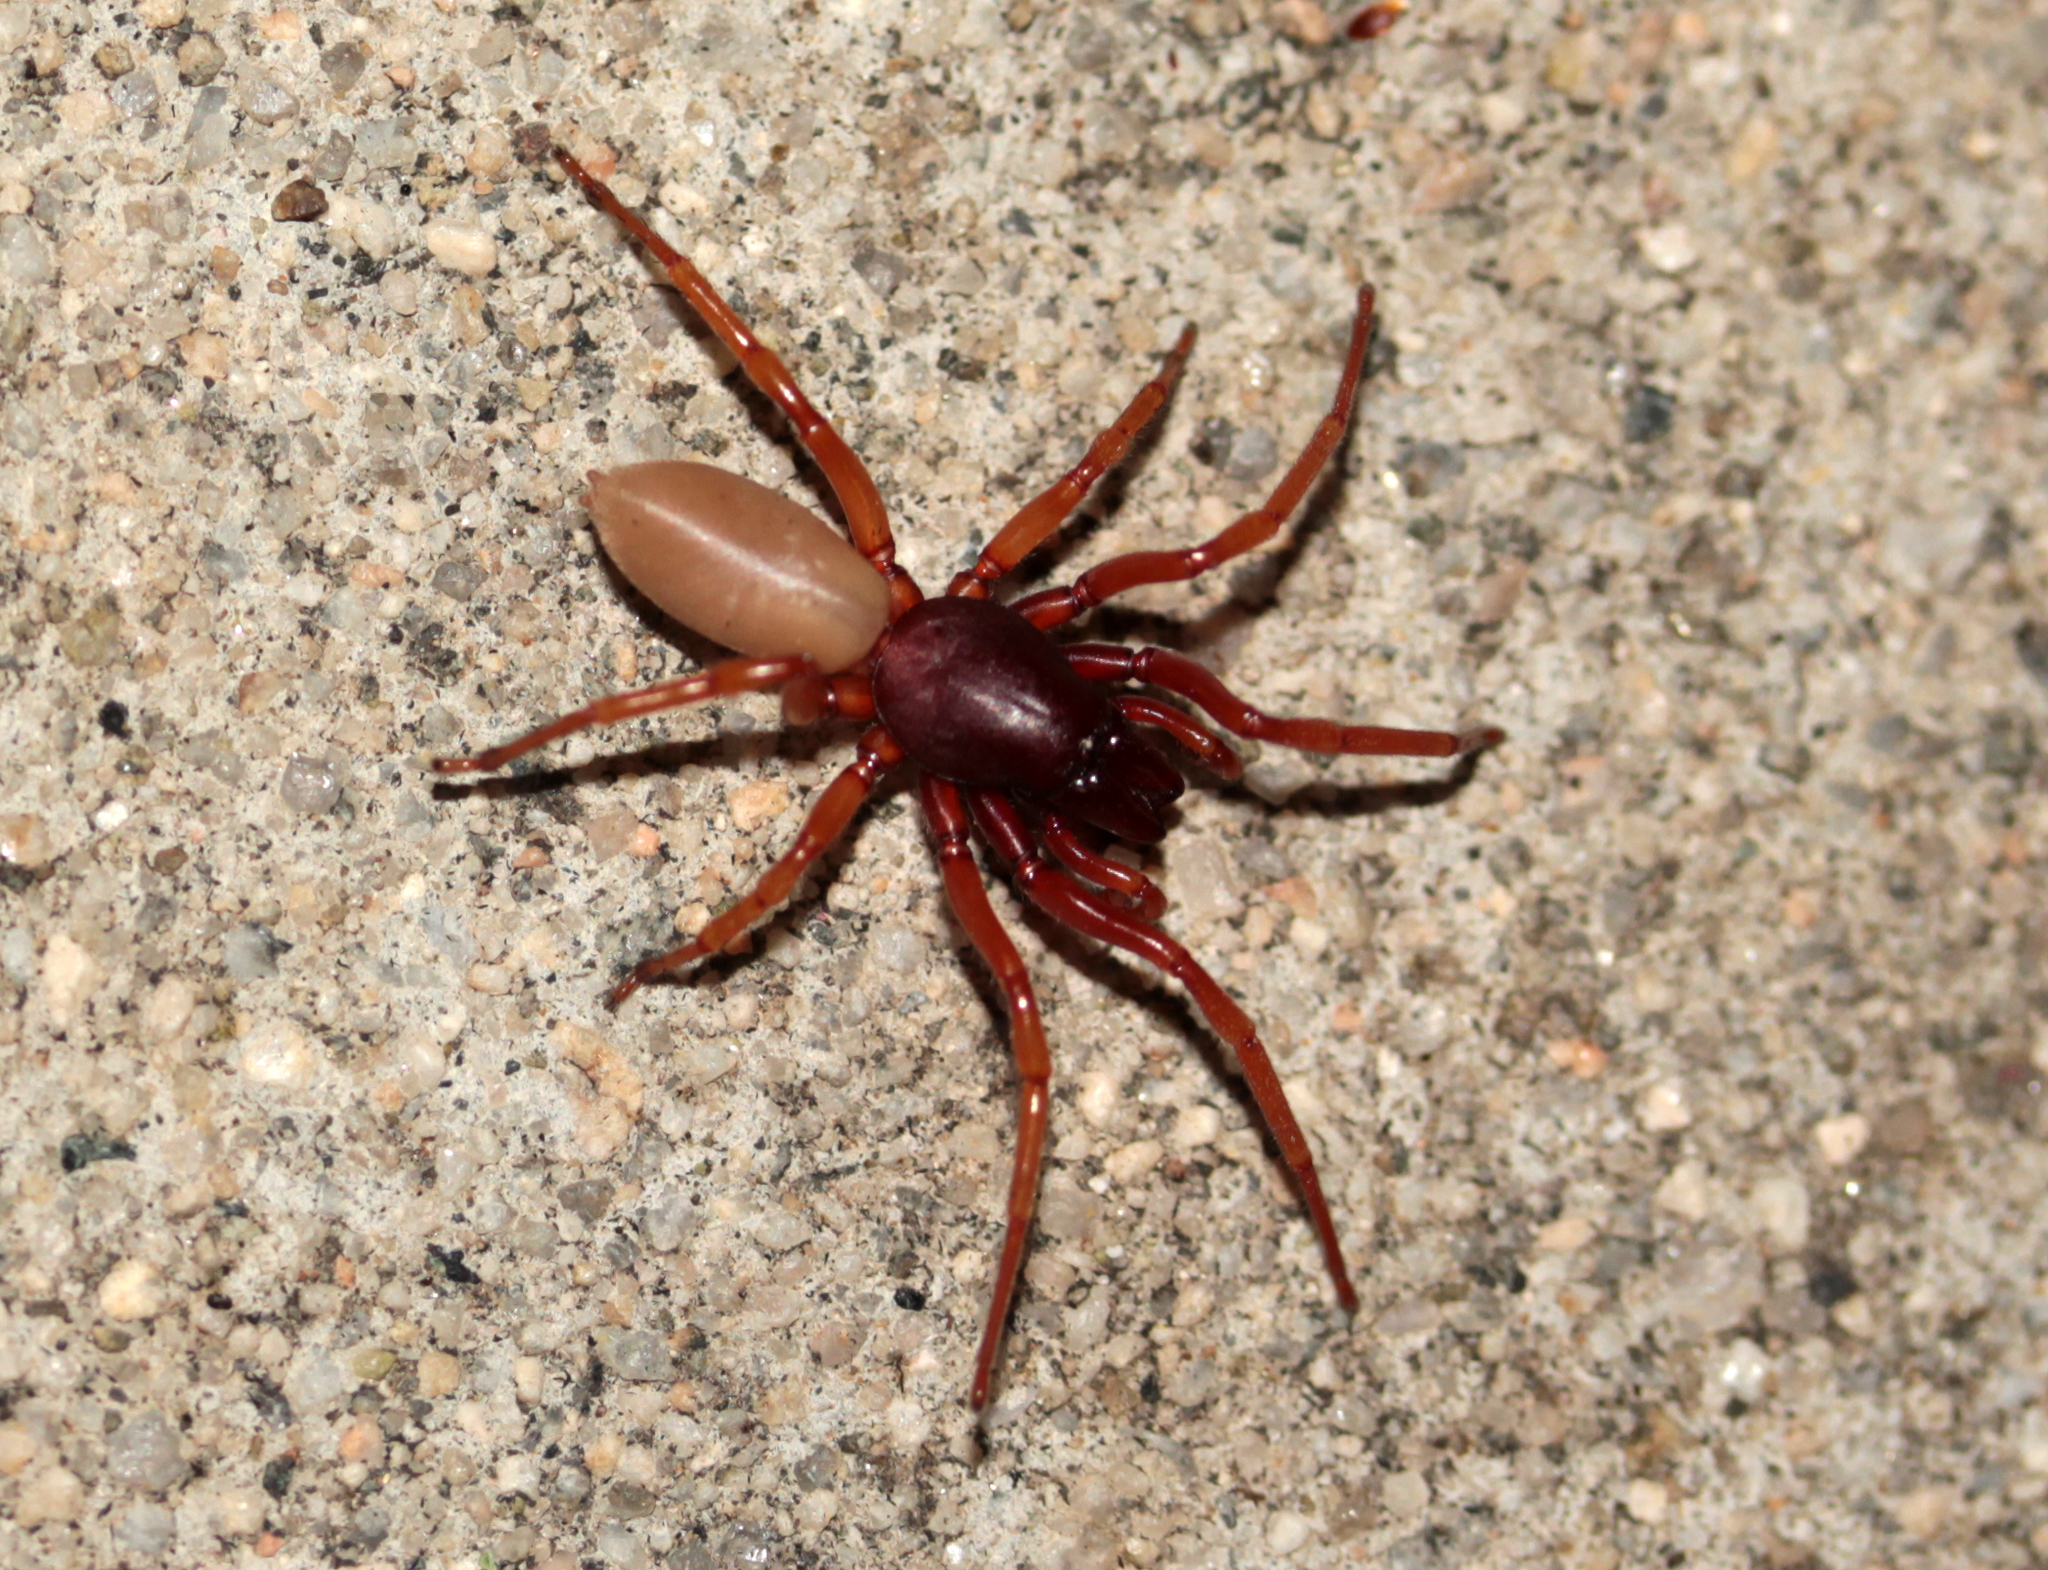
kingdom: Animalia
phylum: Arthropoda
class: Arachnida
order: Araneae
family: Dysderidae
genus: Dysdera
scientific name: Dysdera crocata
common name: Woodlouse spider
